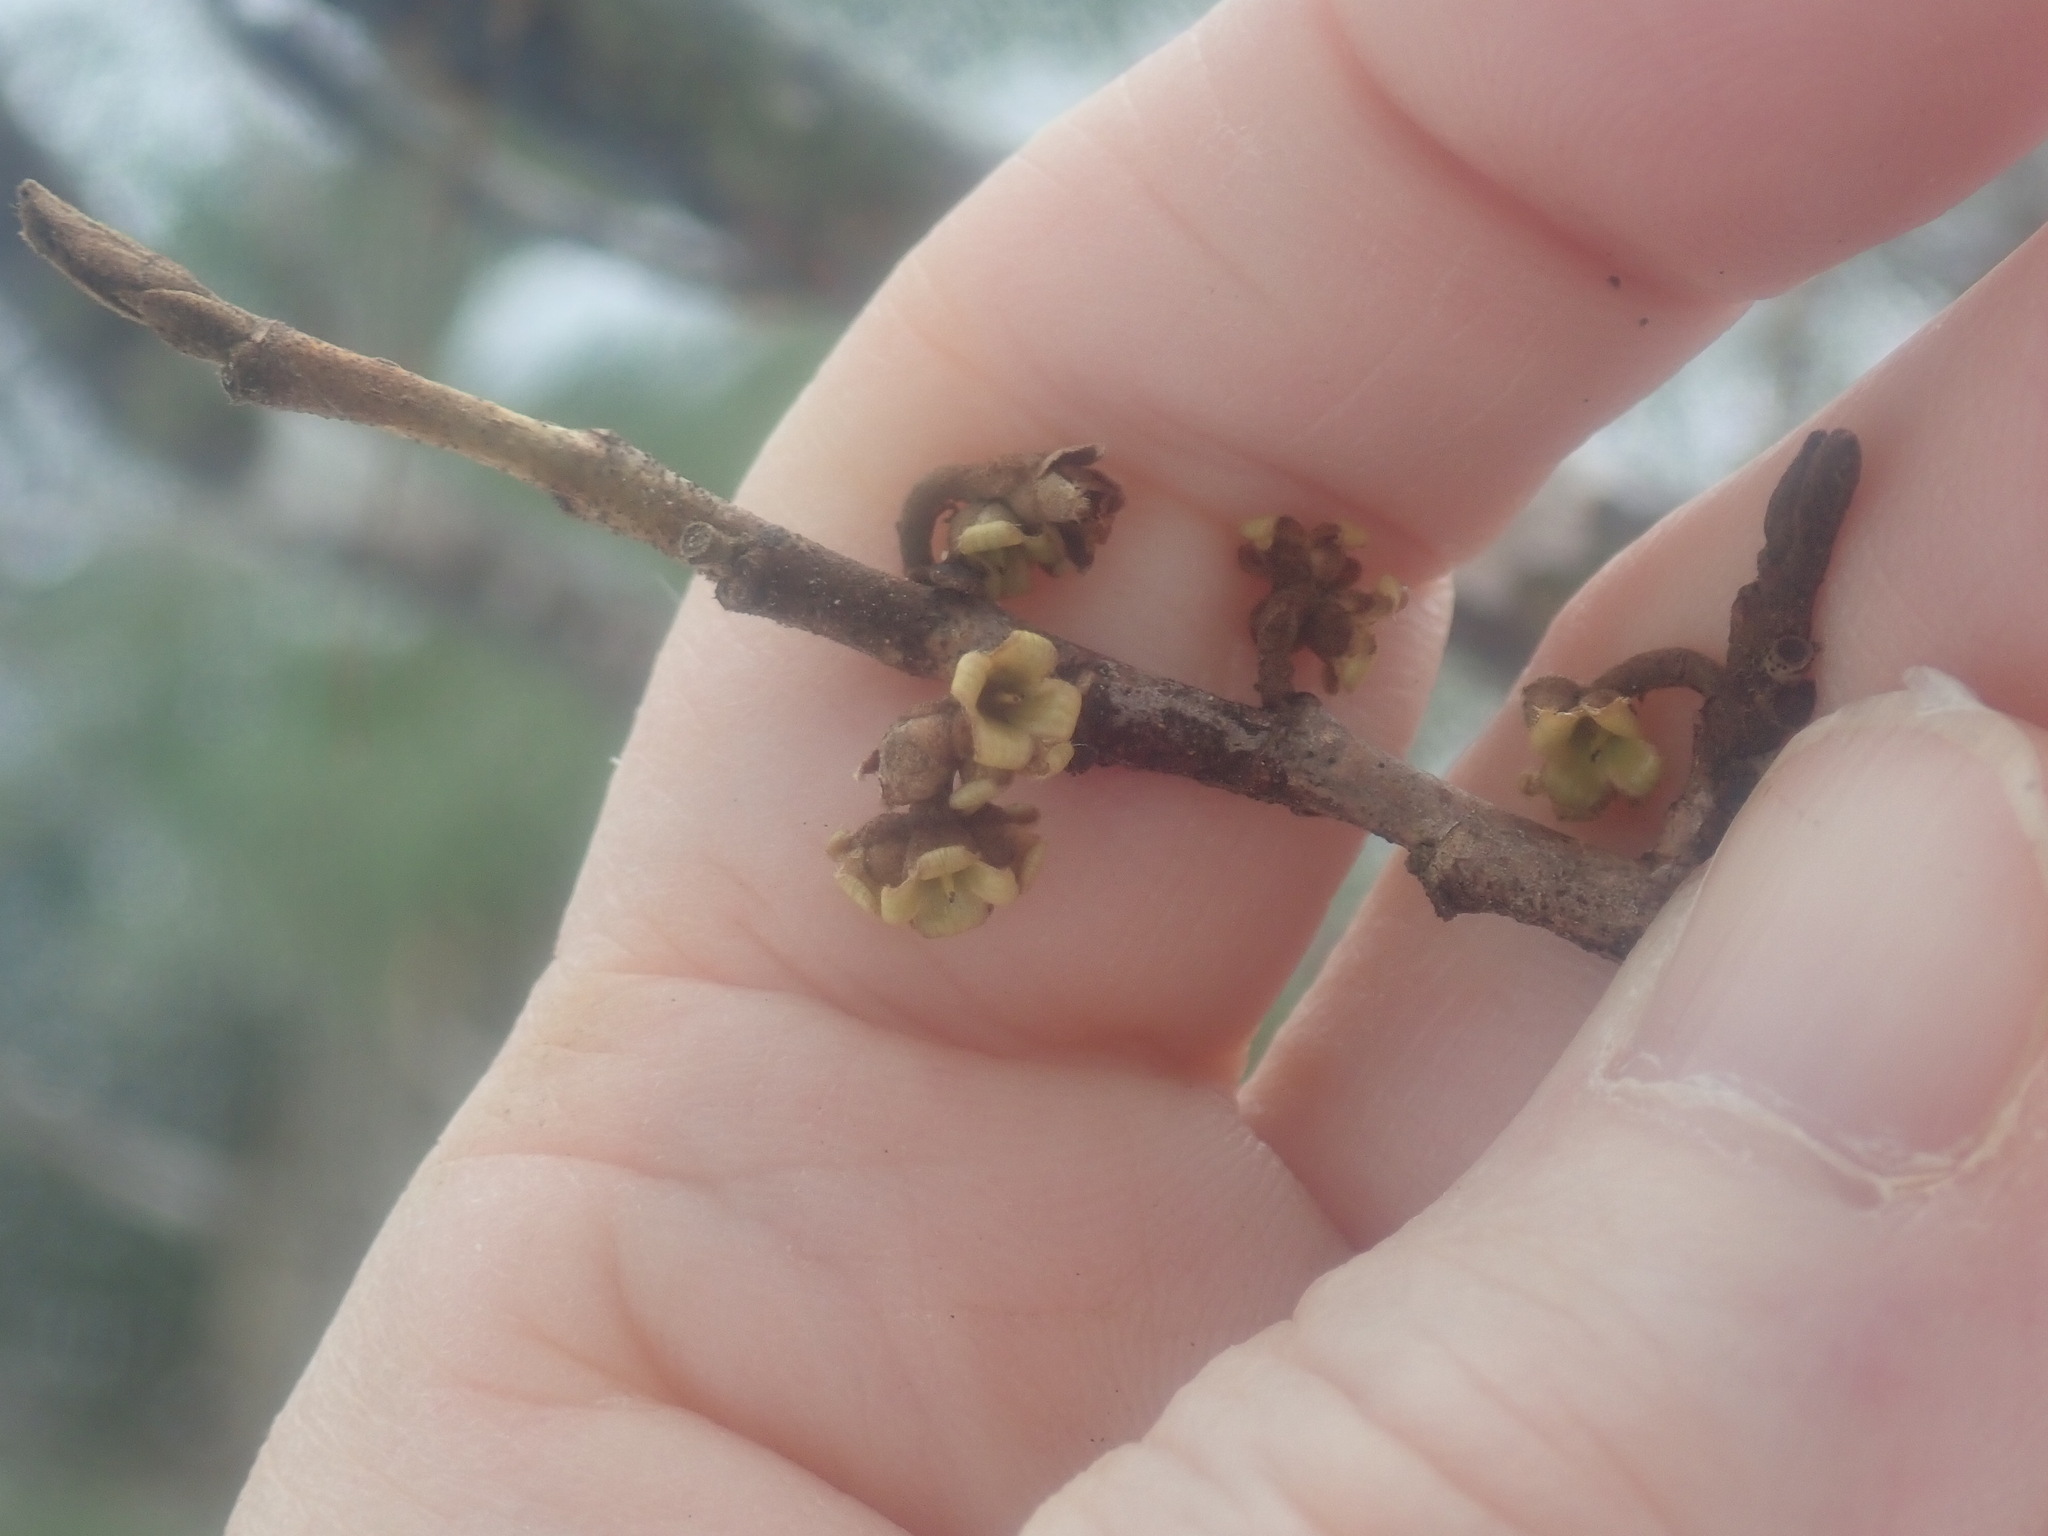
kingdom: Plantae
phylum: Tracheophyta
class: Magnoliopsida
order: Saxifragales
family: Hamamelidaceae
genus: Hamamelis
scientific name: Hamamelis virginiana
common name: Witch-hazel
